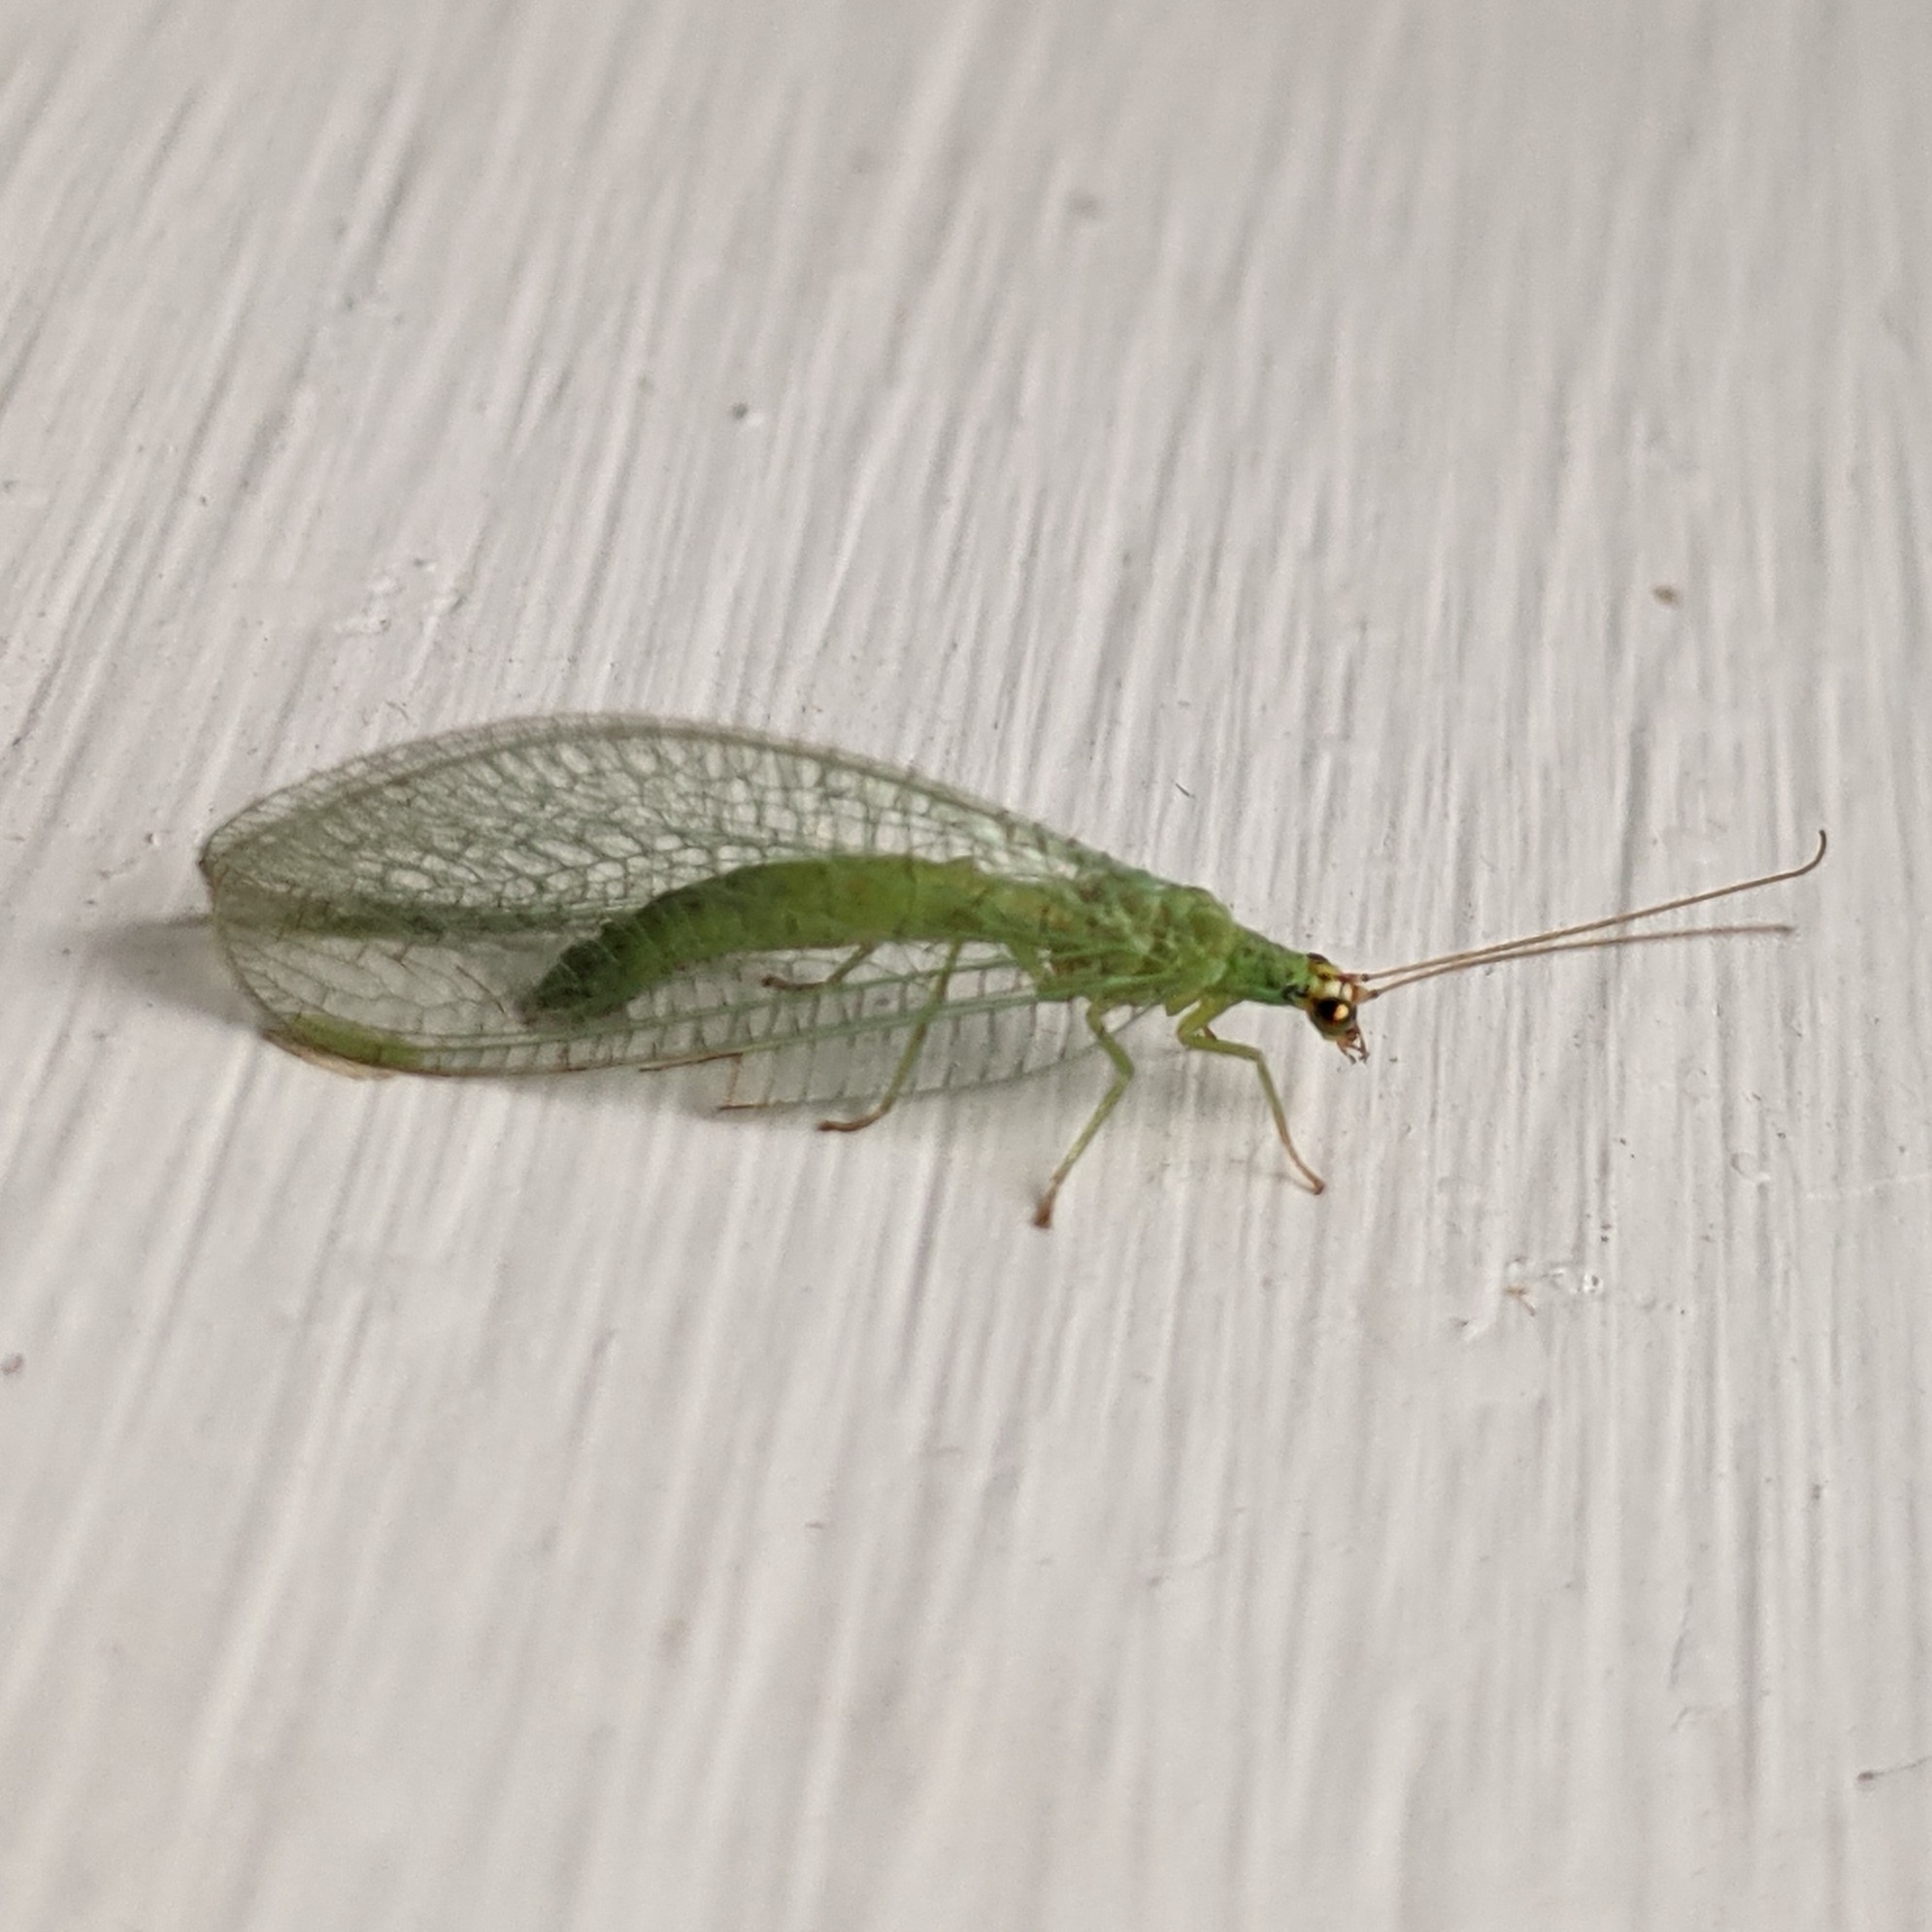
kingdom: Animalia
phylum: Arthropoda
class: Insecta
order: Neuroptera
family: Chrysopidae
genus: Chrysopa
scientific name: Chrysopa oculata
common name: Golden-eyed lacewing
